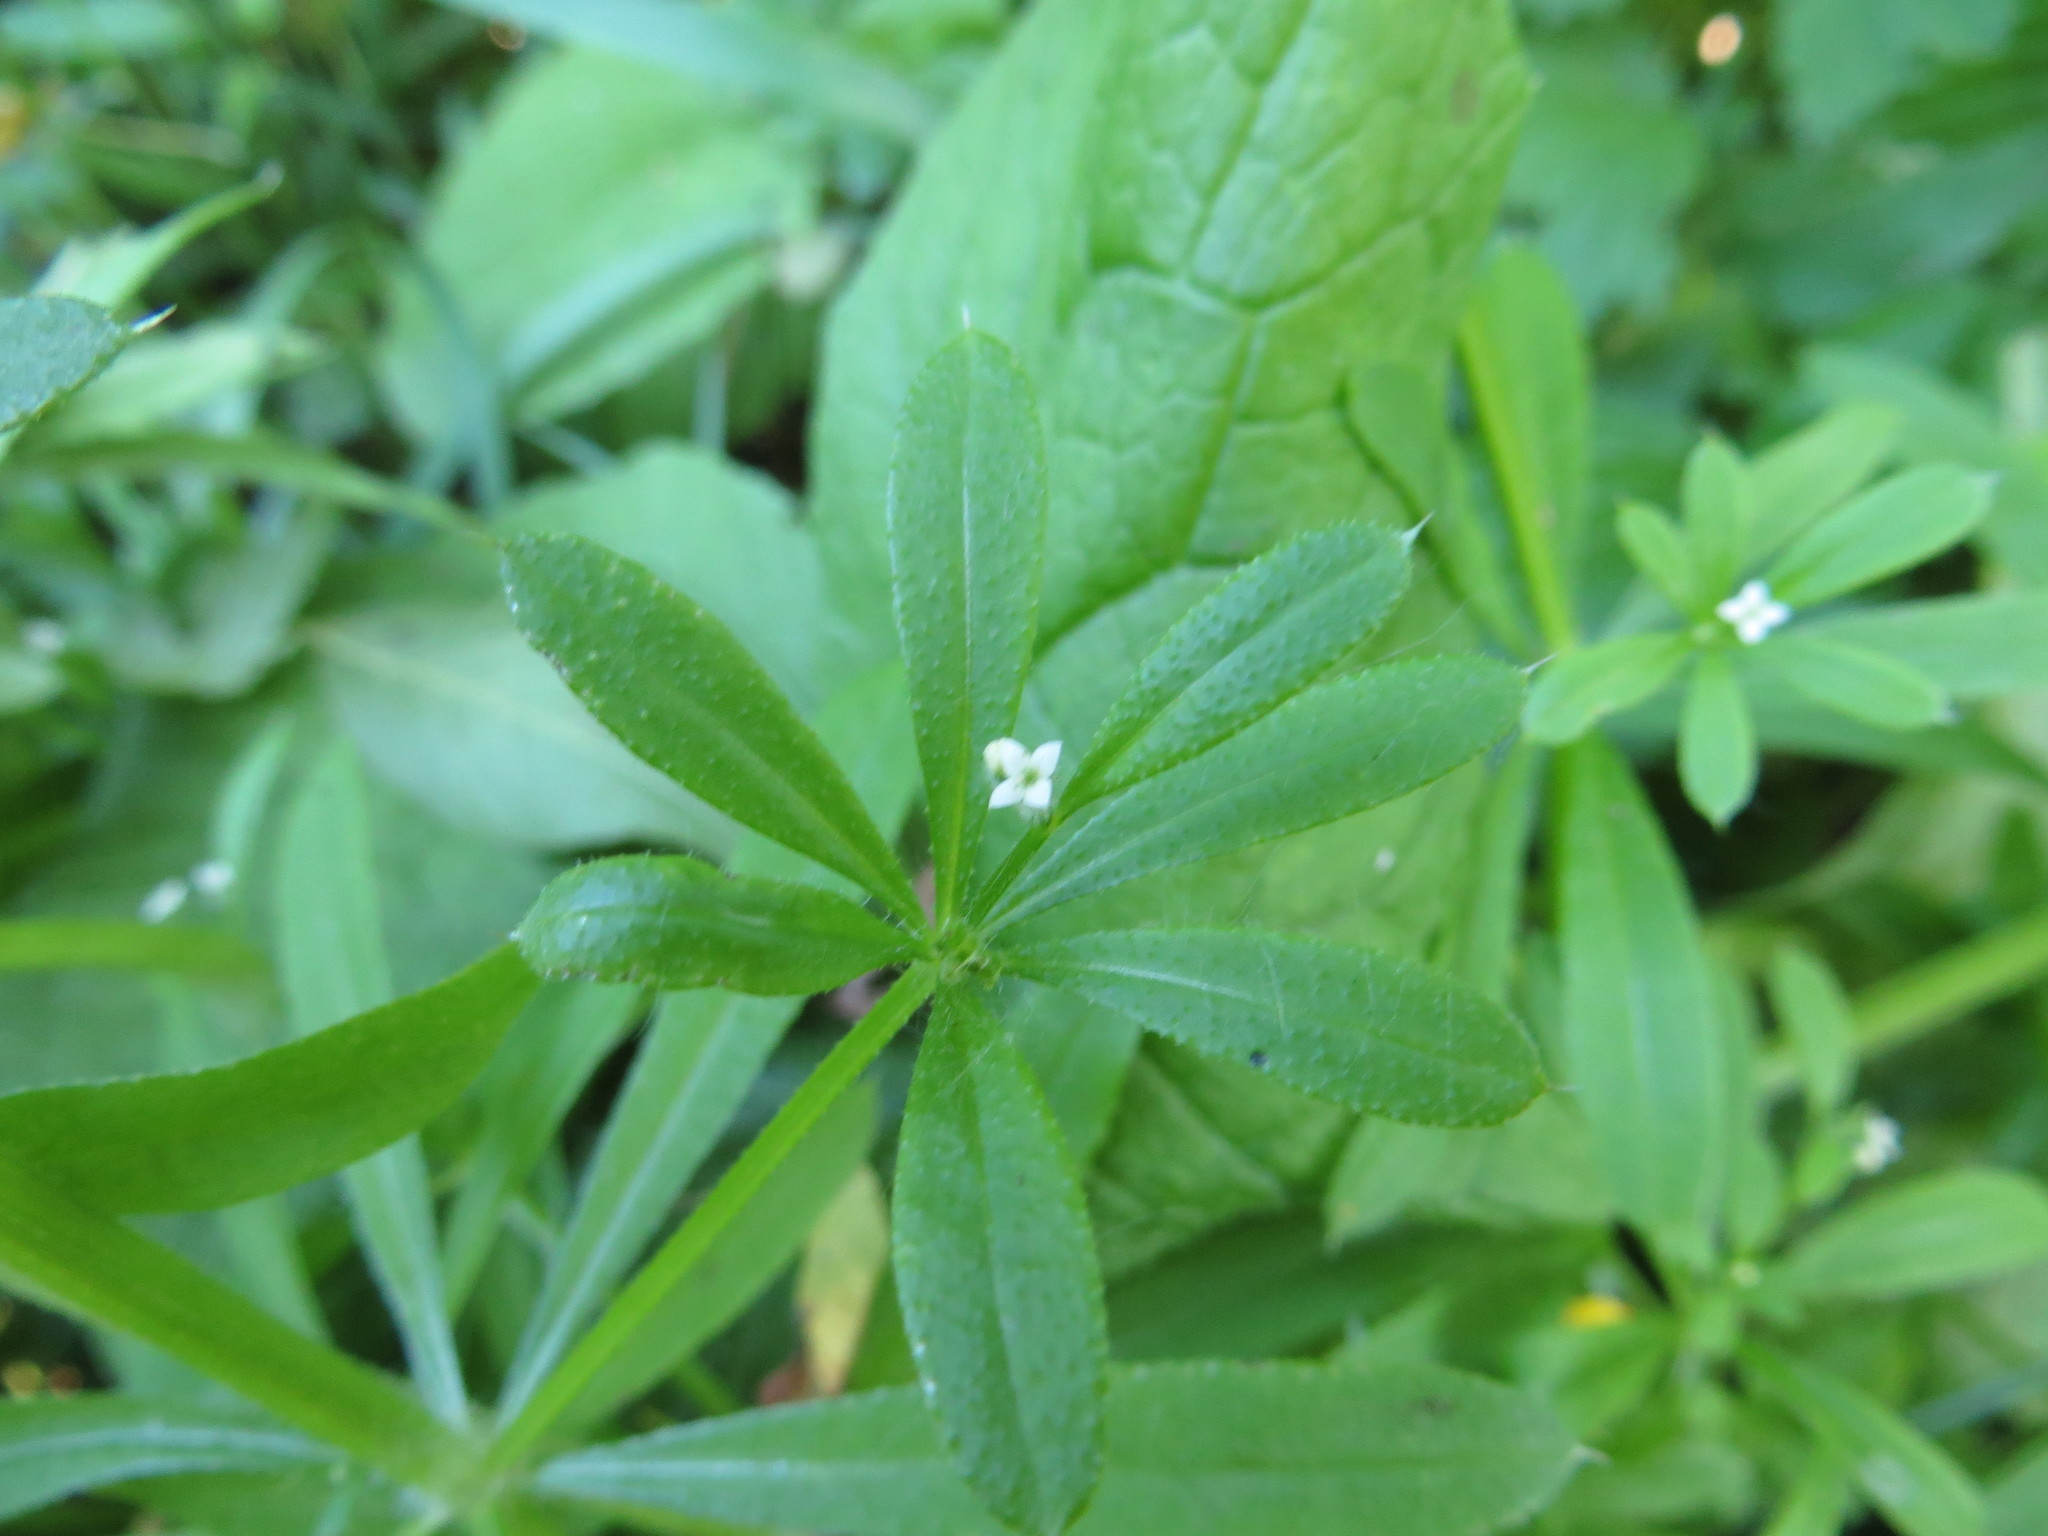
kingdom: Plantae
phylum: Tracheophyta
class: Magnoliopsida
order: Gentianales
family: Rubiaceae
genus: Galium
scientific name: Galium aparine
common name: Cleavers
